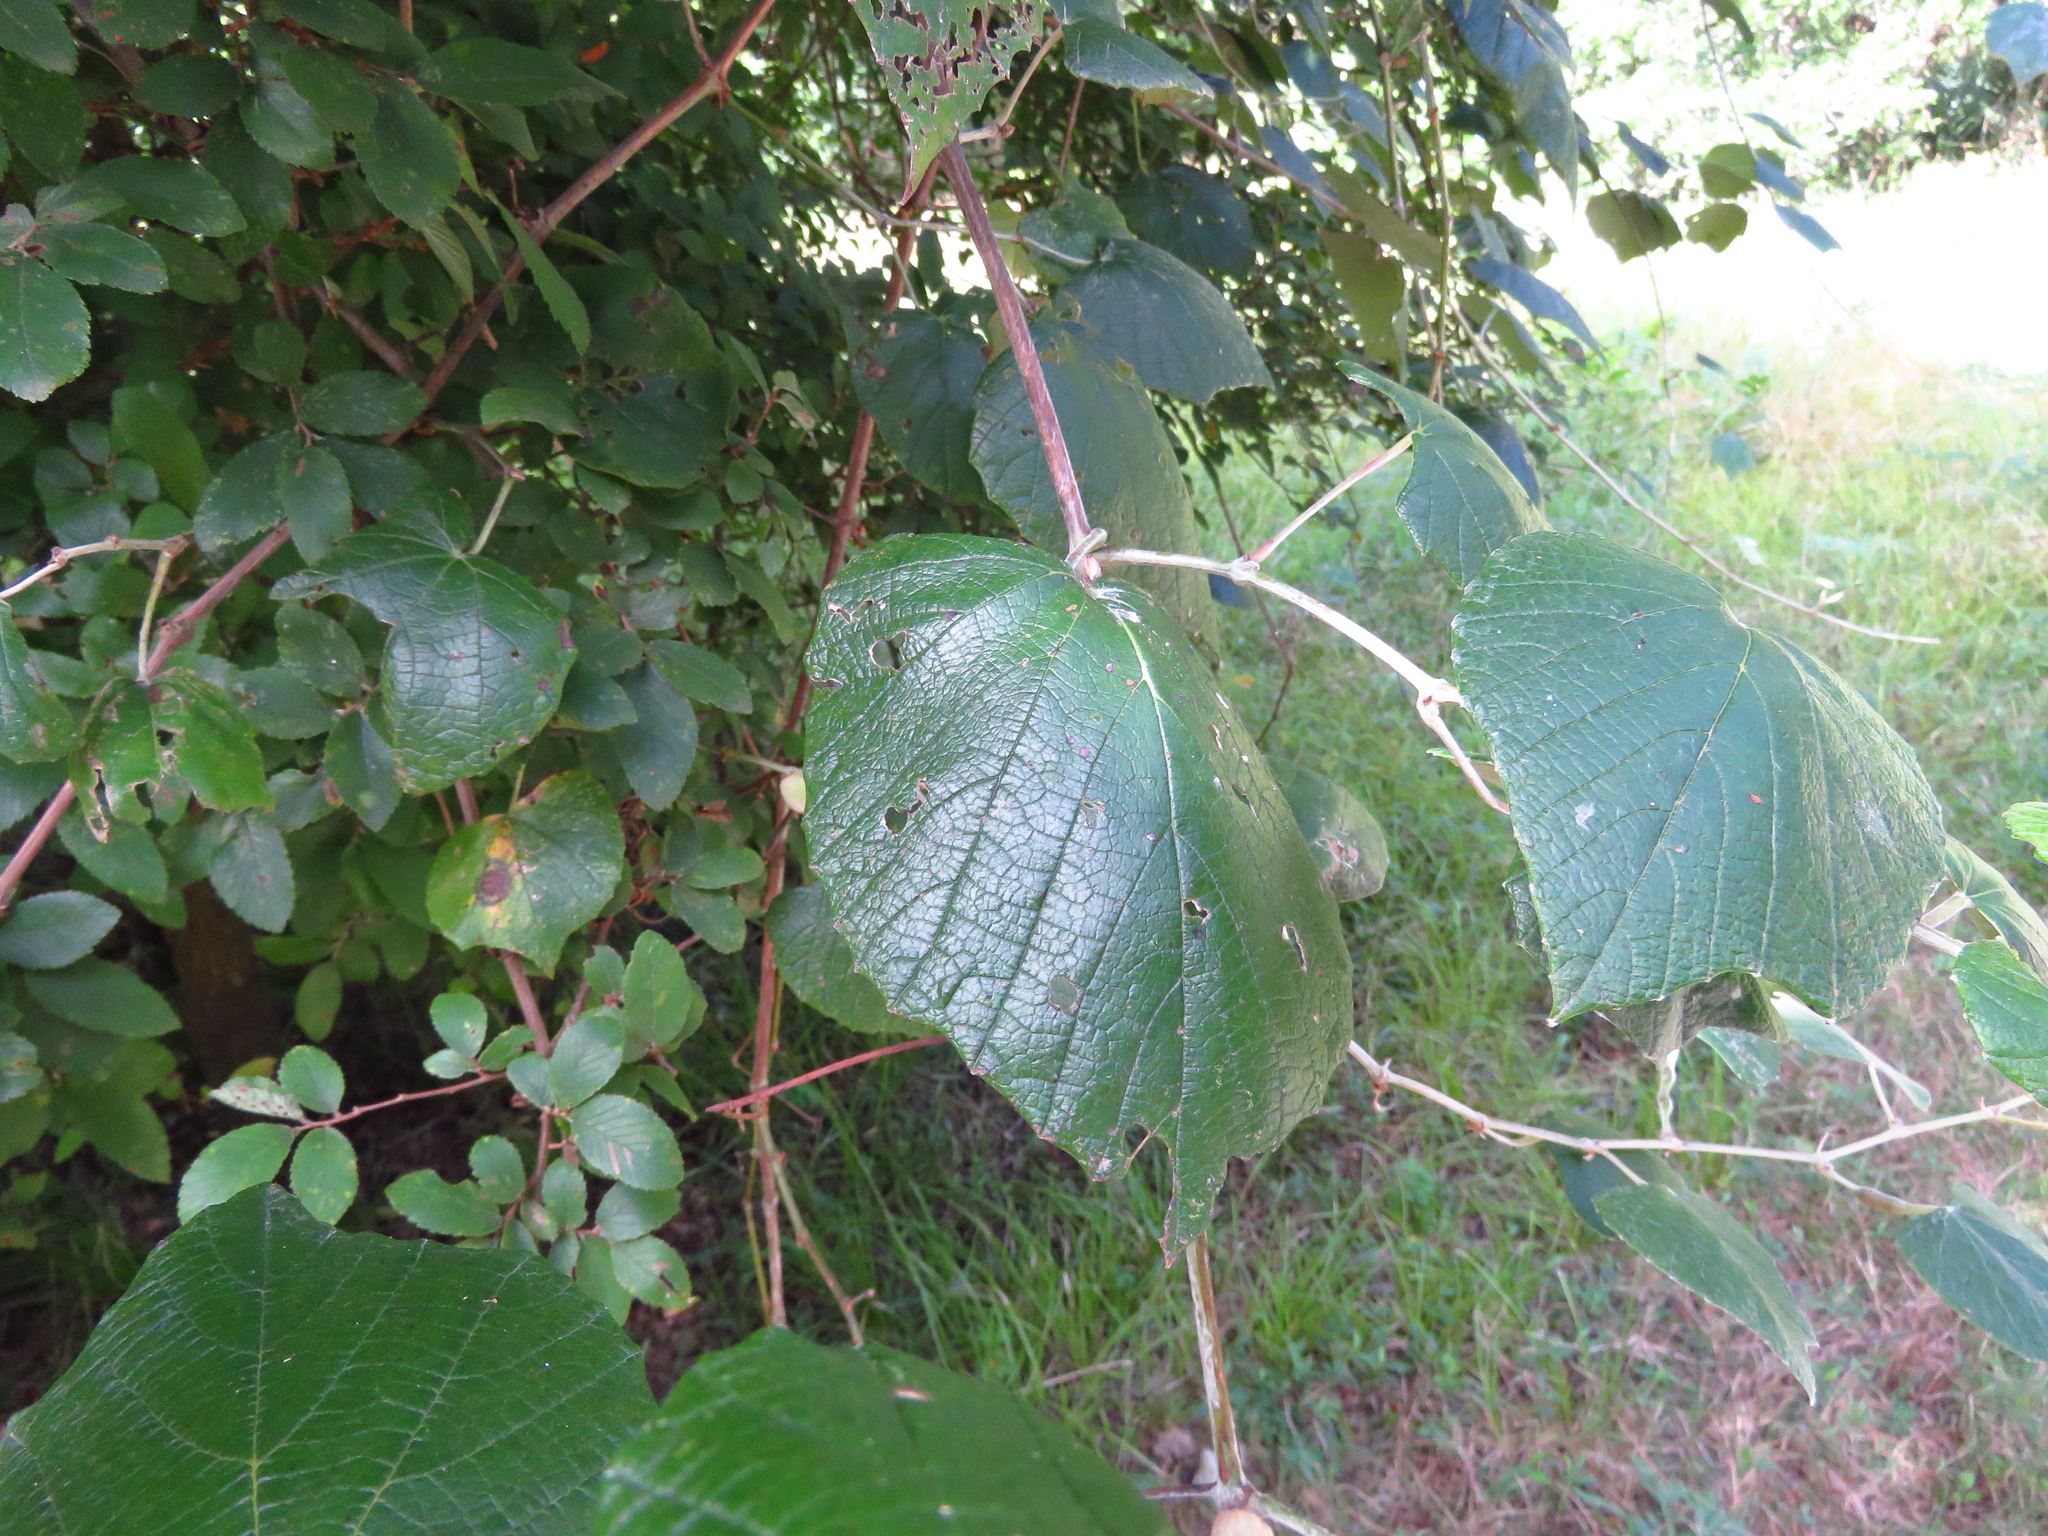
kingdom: Plantae
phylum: Tracheophyta
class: Magnoliopsida
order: Vitales
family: Vitaceae
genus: Vitis
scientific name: Vitis mustangensis
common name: Mustang grape
